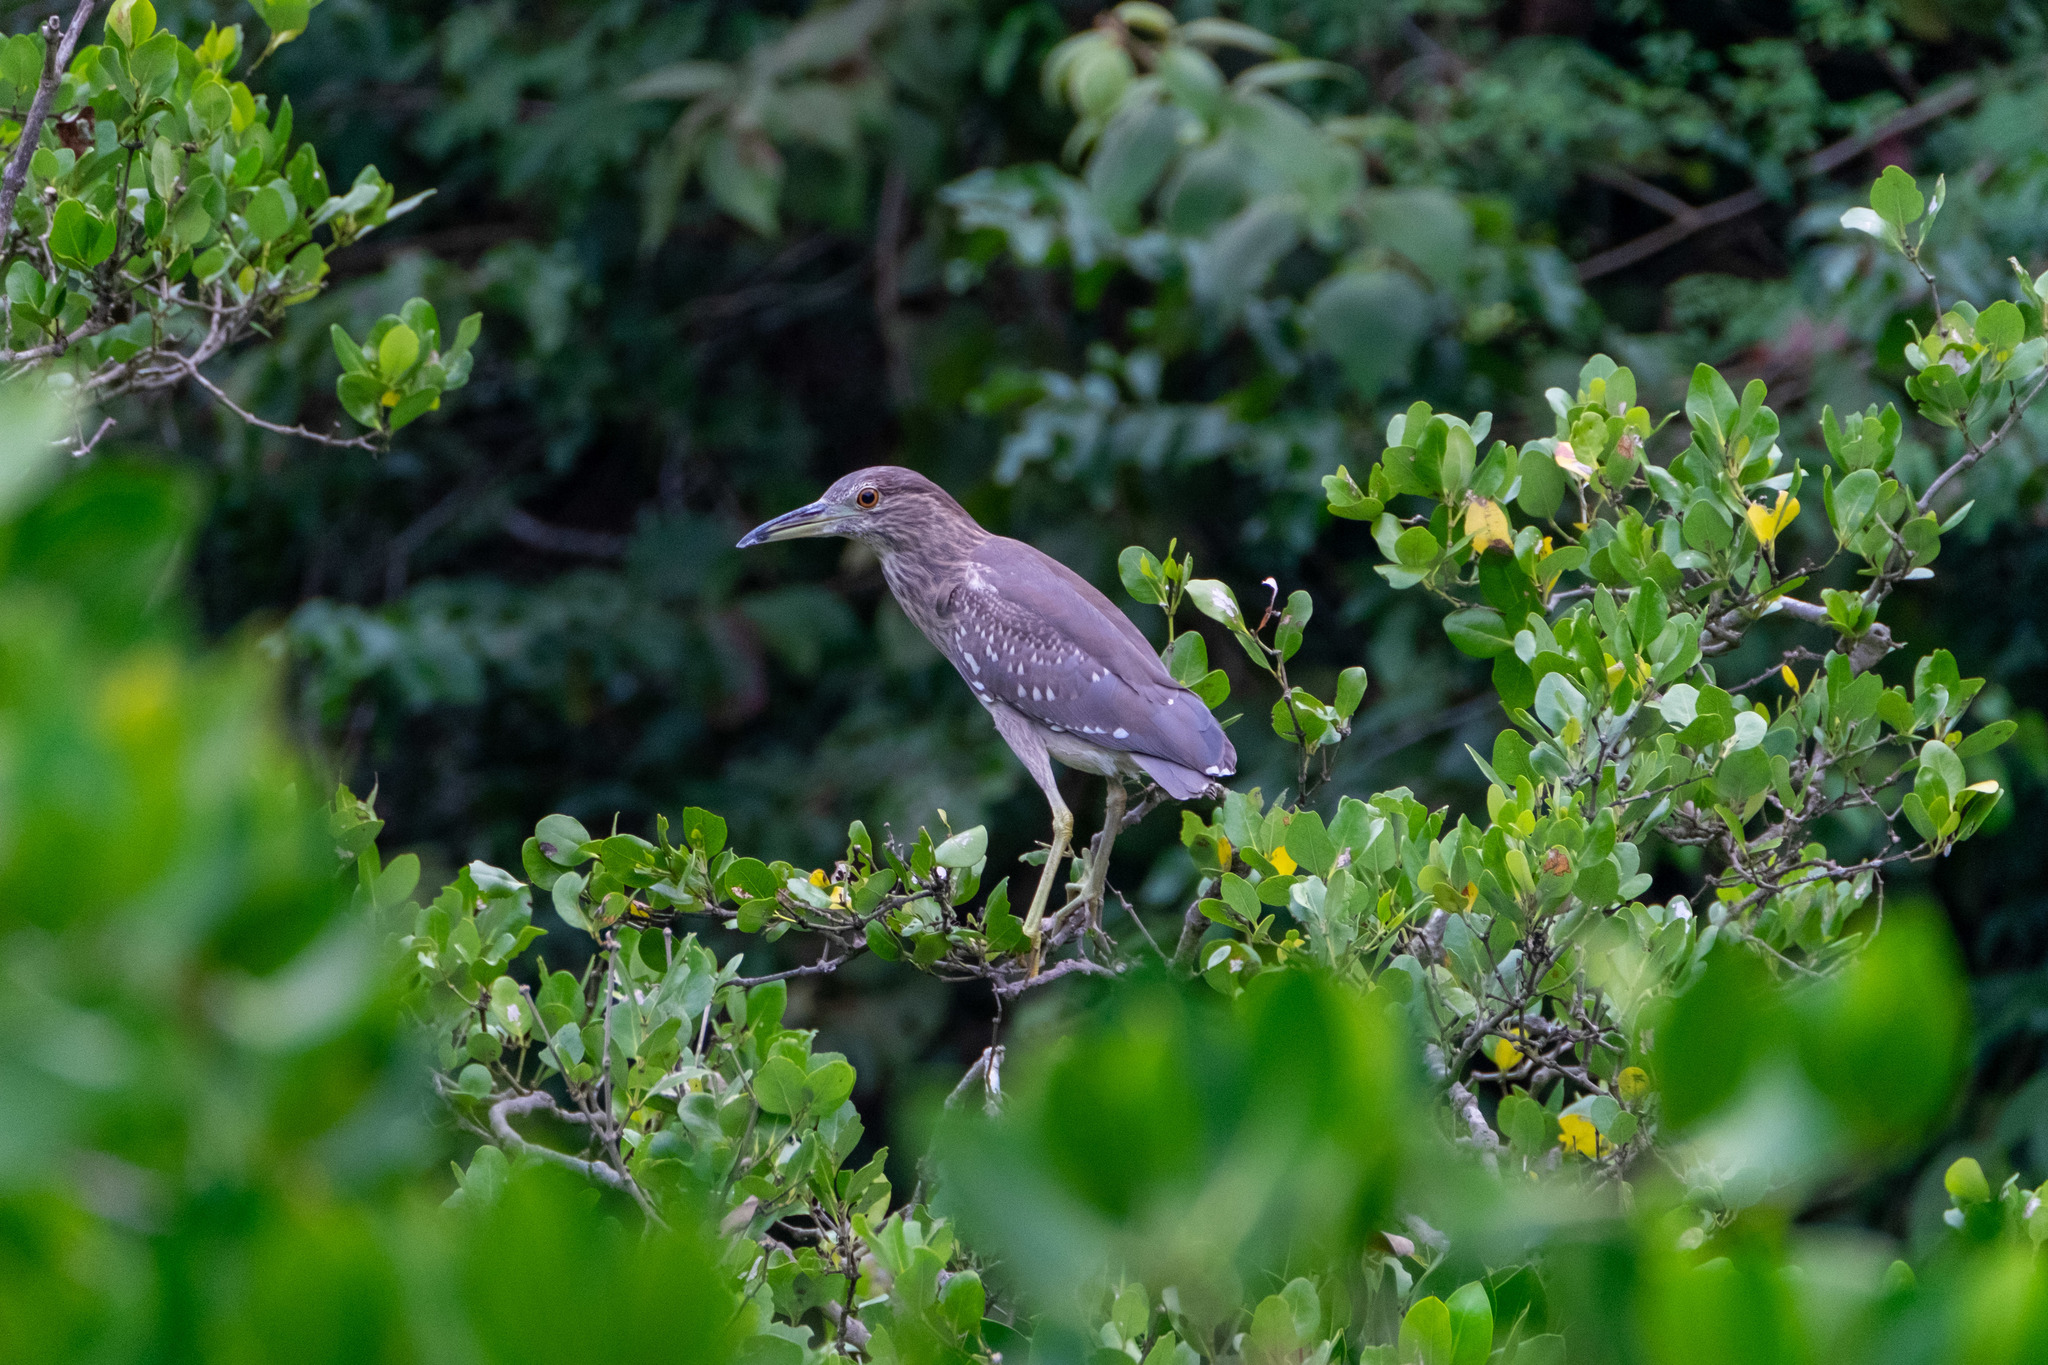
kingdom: Animalia
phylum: Chordata
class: Aves
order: Pelecaniformes
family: Ardeidae
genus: Nycticorax
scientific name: Nycticorax nycticorax
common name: Black-crowned night heron
